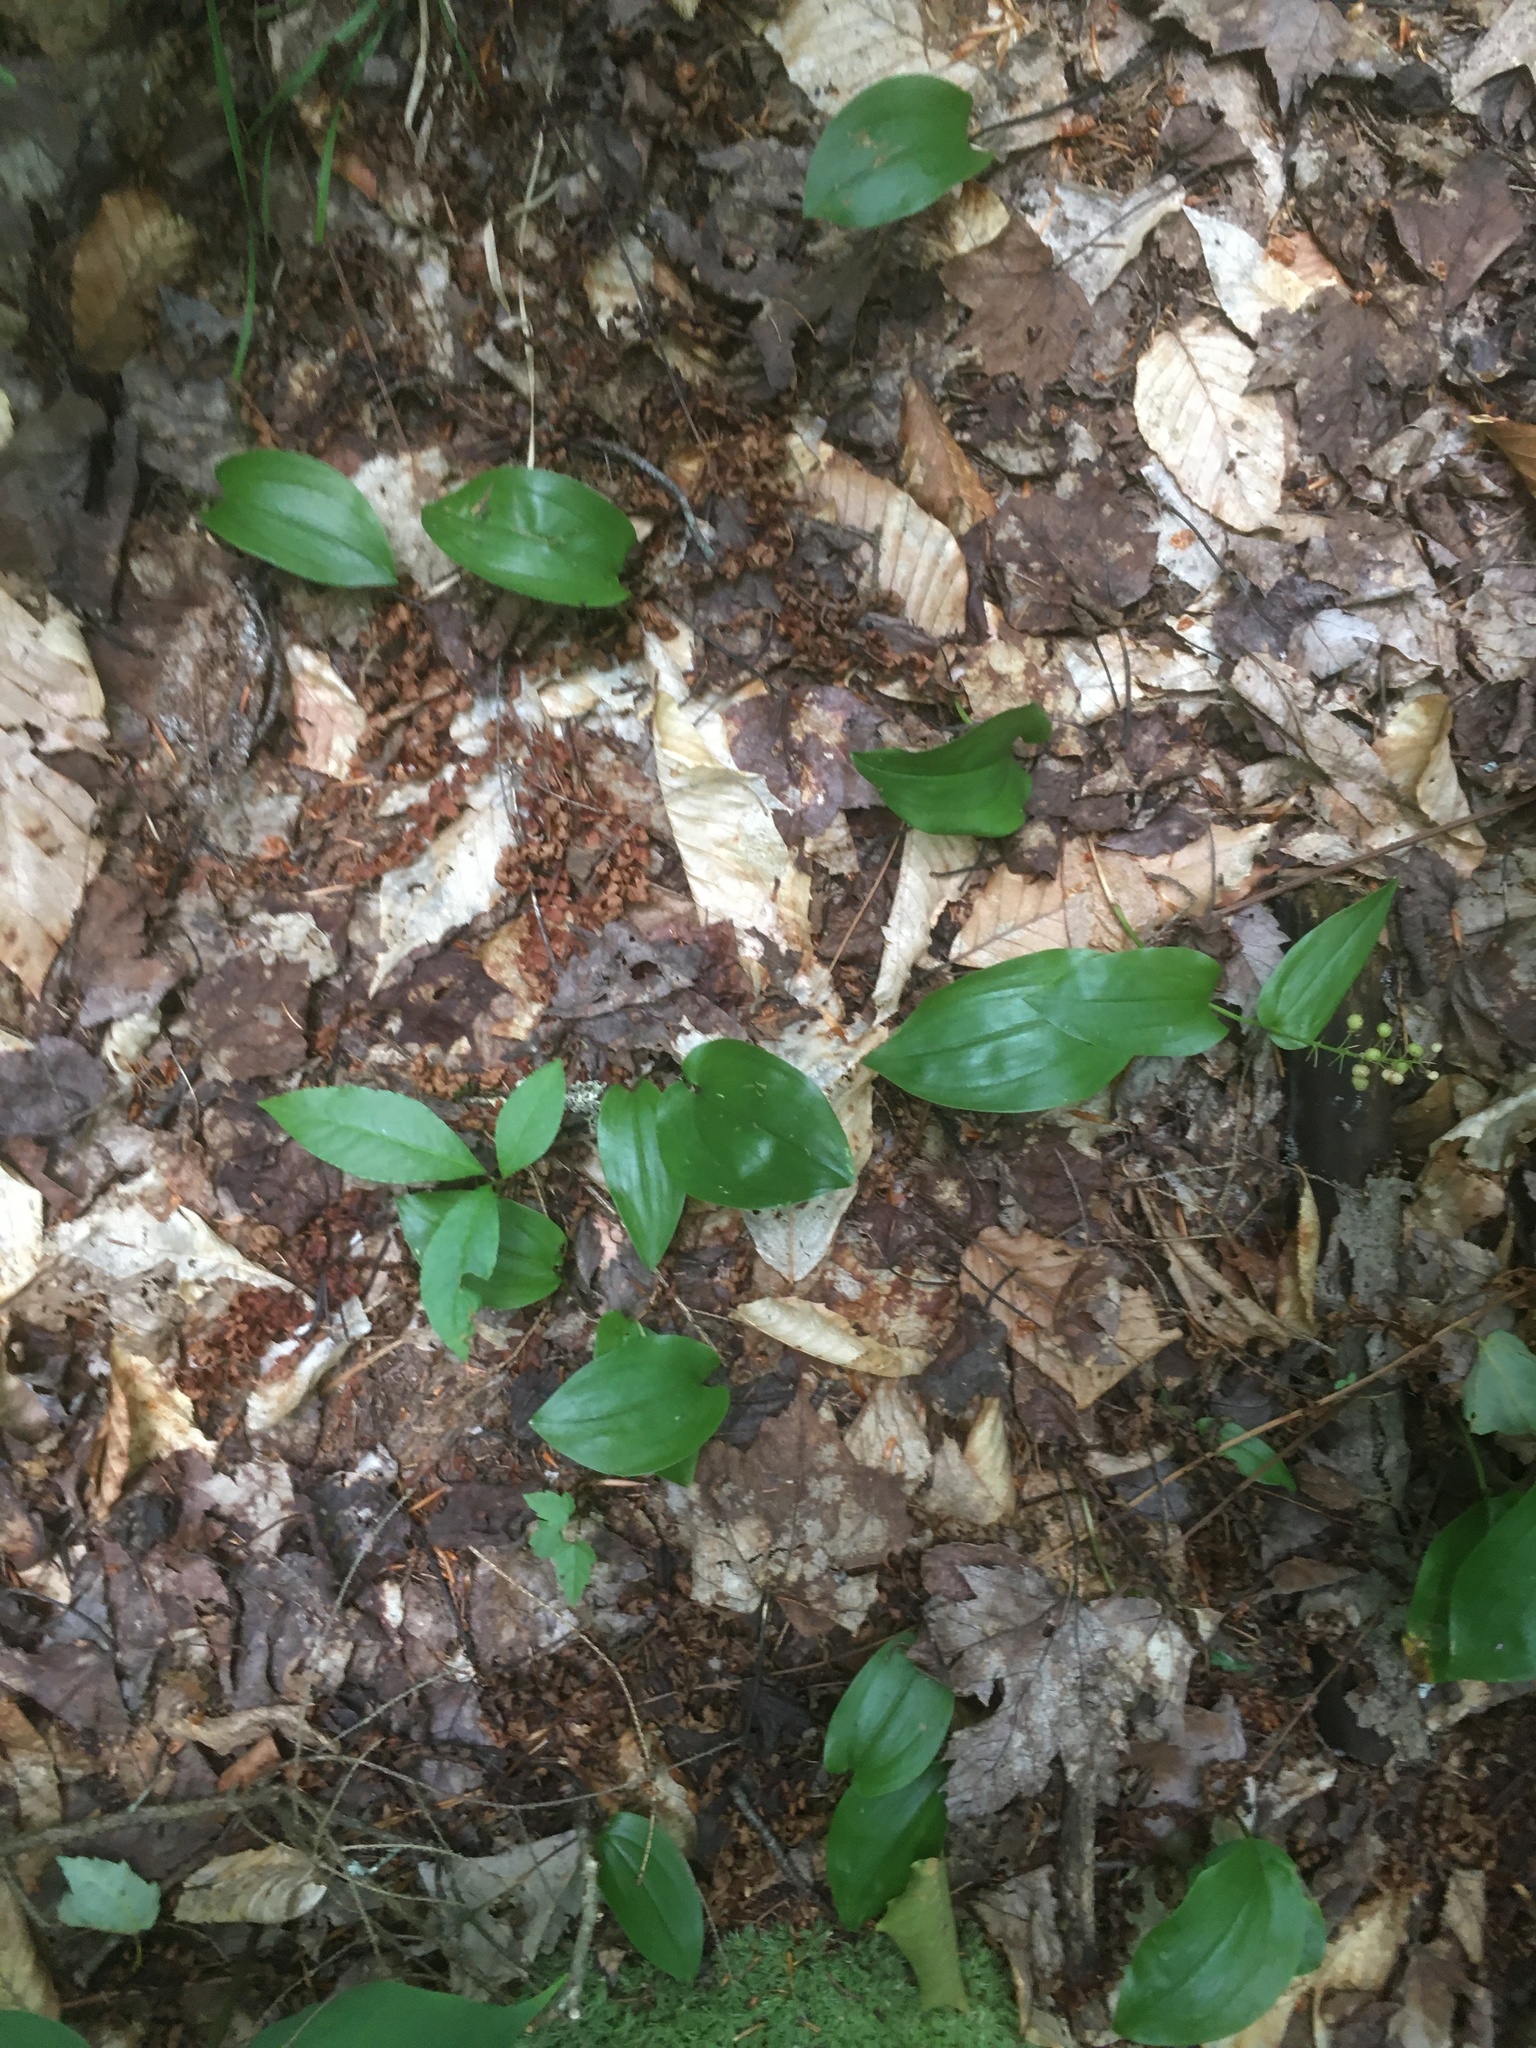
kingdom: Plantae
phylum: Tracheophyta
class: Liliopsida
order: Asparagales
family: Asparagaceae
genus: Maianthemum
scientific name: Maianthemum canadense
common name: False lily-of-the-valley
